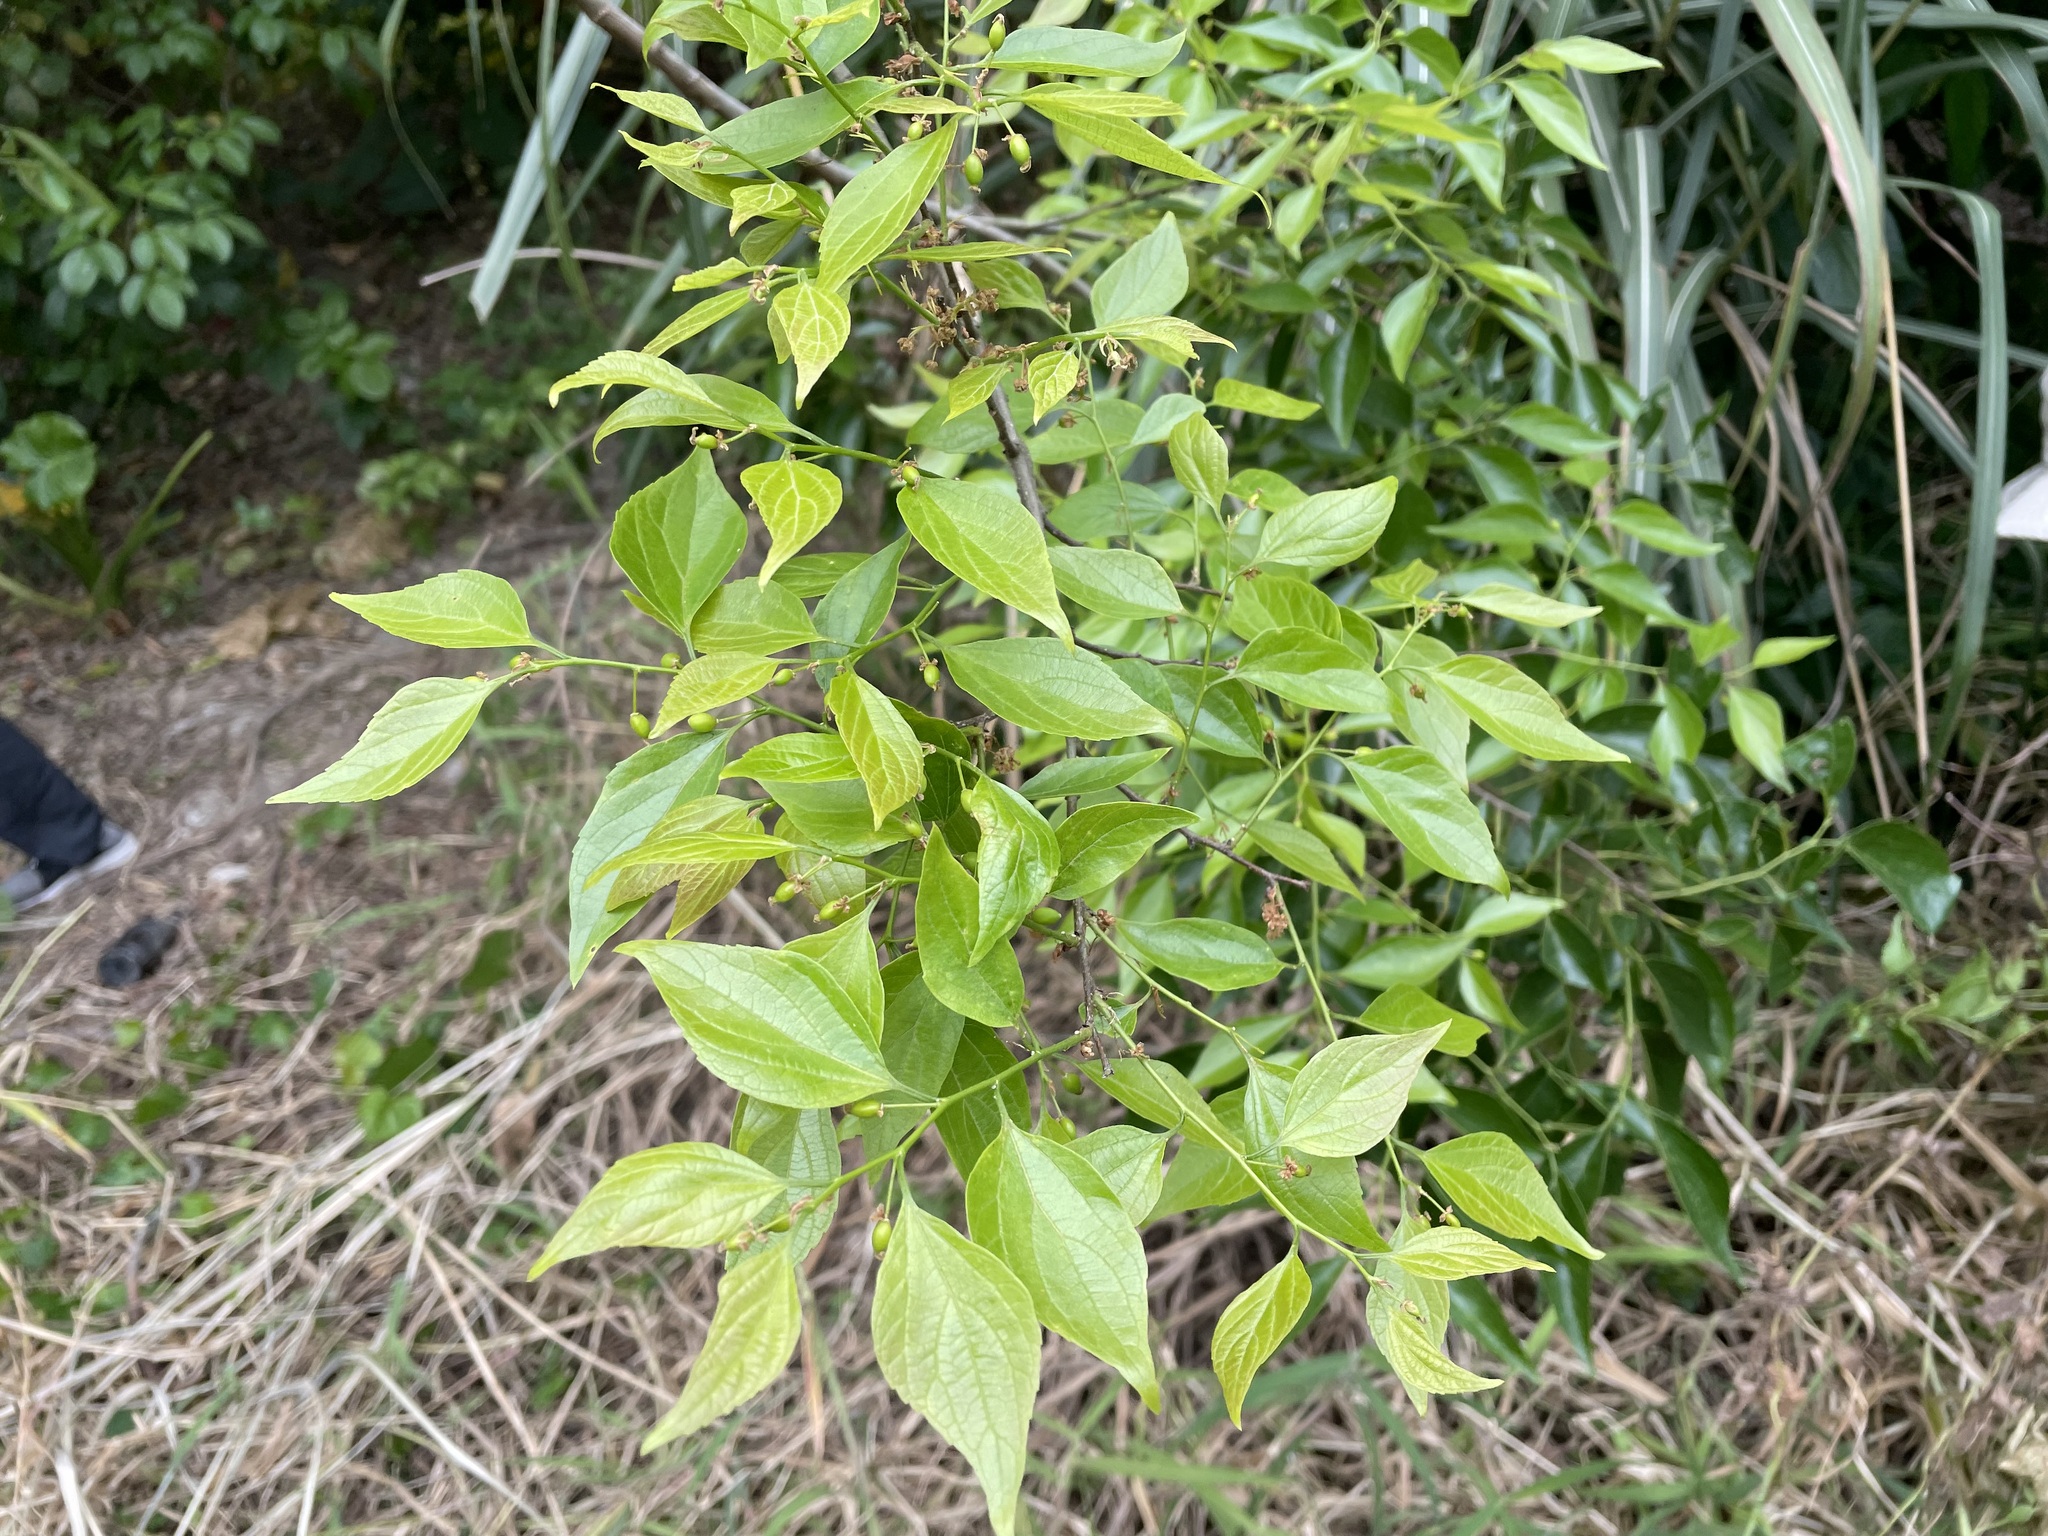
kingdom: Plantae
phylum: Tracheophyta
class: Magnoliopsida
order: Rosales
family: Cannabaceae
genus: Celtis
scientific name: Celtis sinensis
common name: Chinese hackberry
